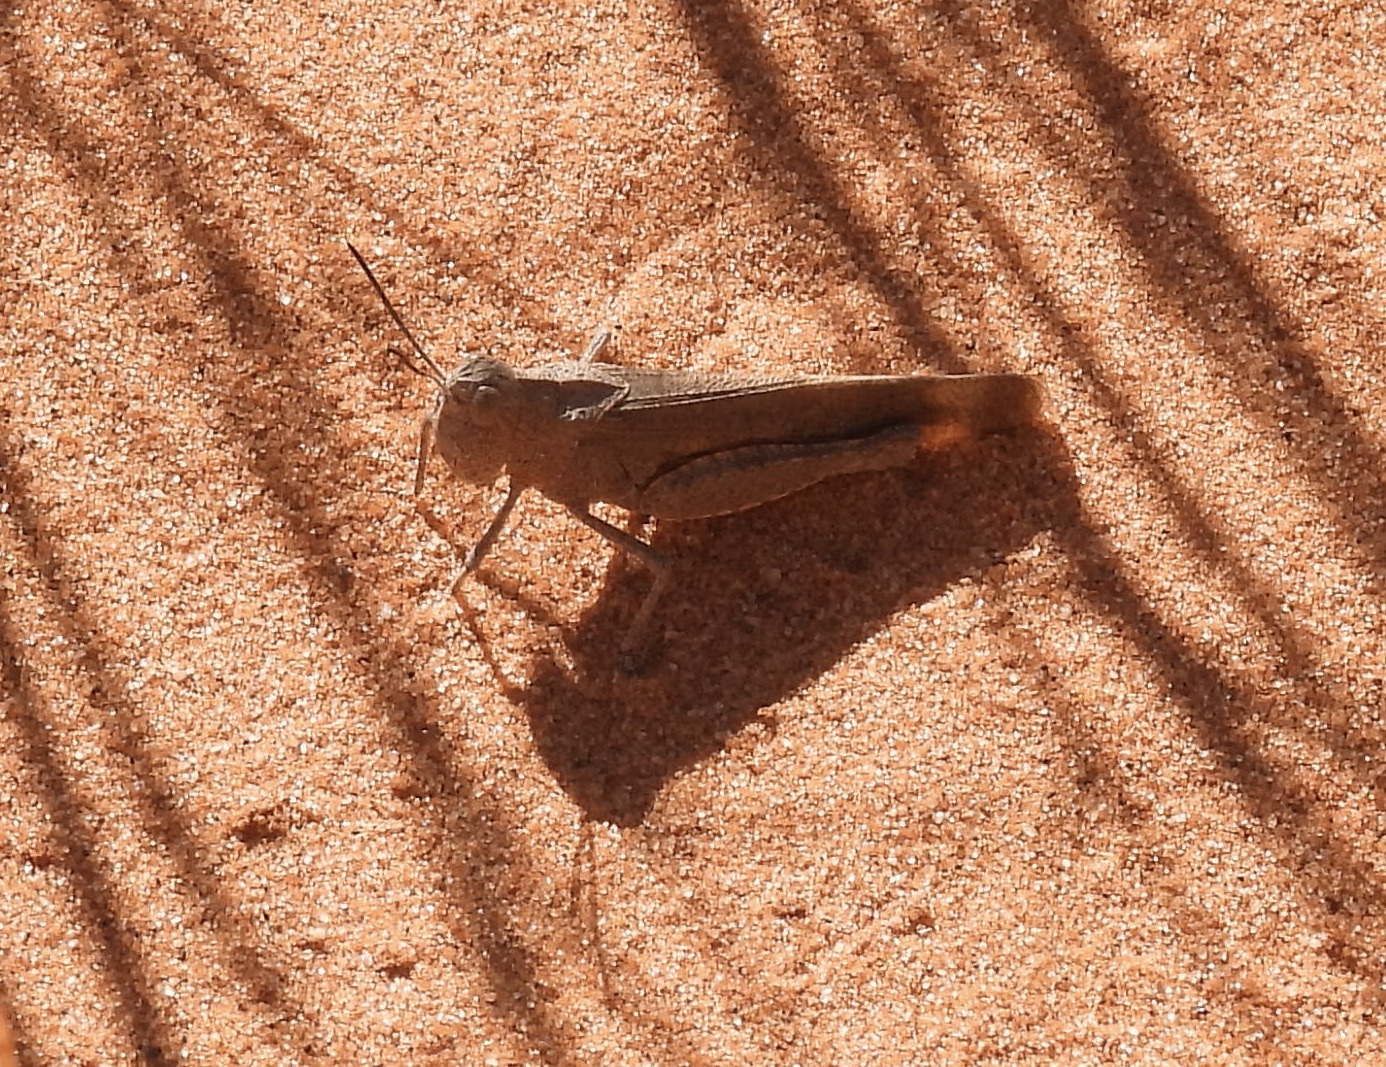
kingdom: Animalia
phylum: Arthropoda
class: Insecta
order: Orthoptera
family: Acrididae
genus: Arphia
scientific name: Arphia conspersa
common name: Speckle-winged rangeland grasshopper
